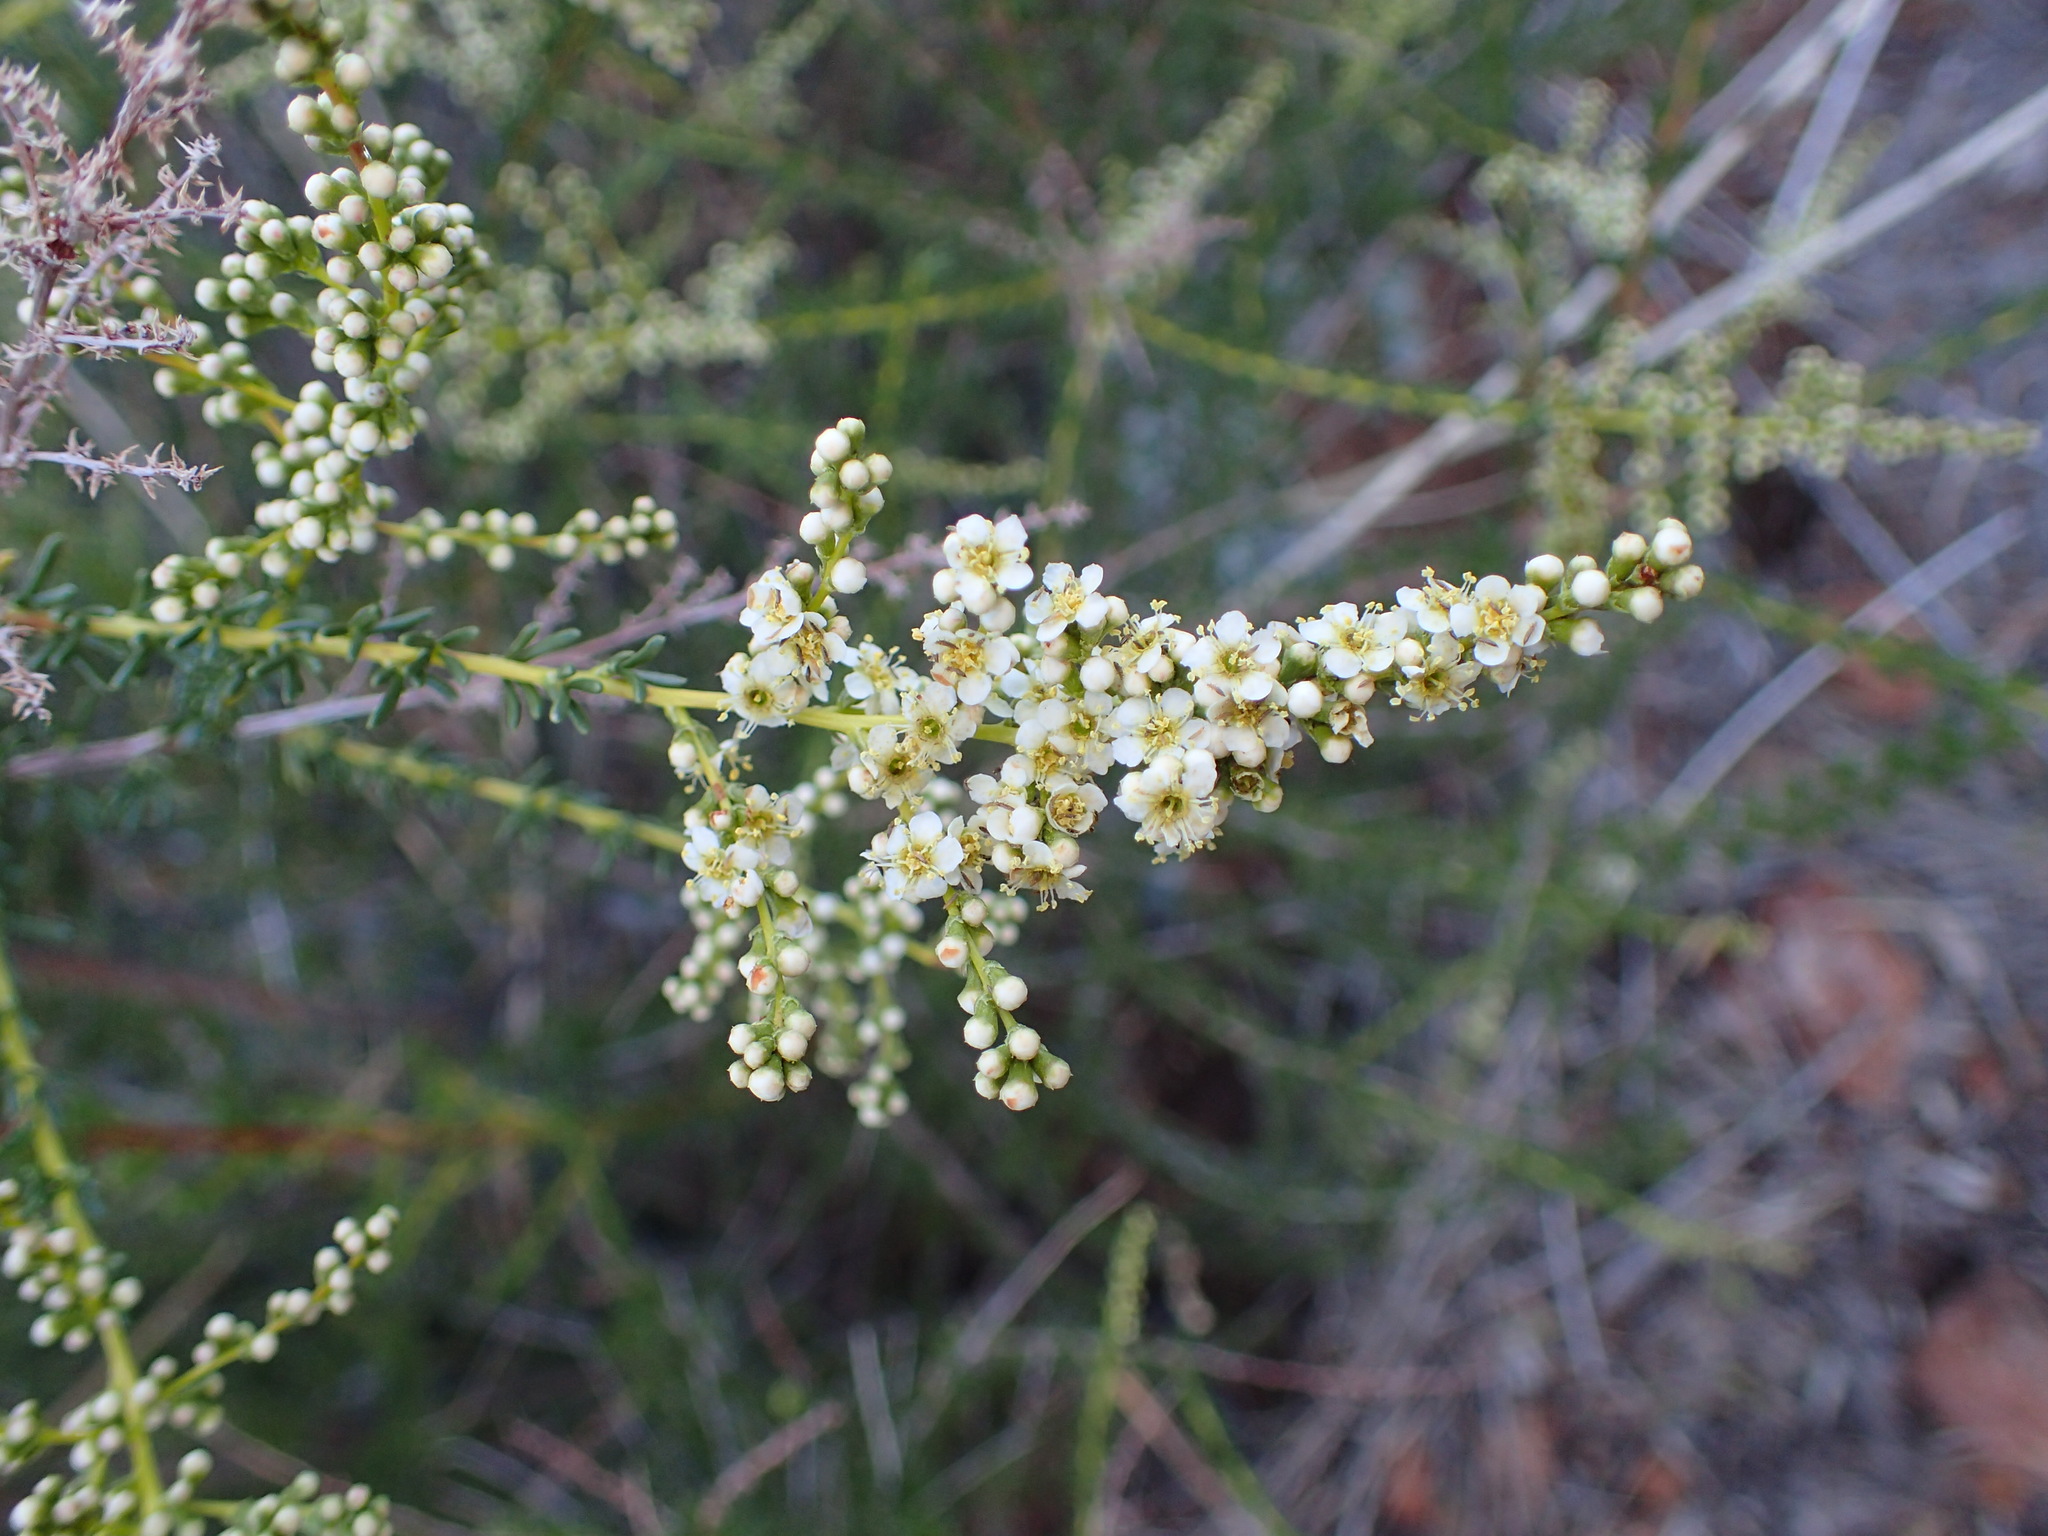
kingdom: Plantae
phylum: Tracheophyta
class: Magnoliopsida
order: Rosales
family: Rosaceae
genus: Adenostoma
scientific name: Adenostoma fasciculatum
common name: Chamise
